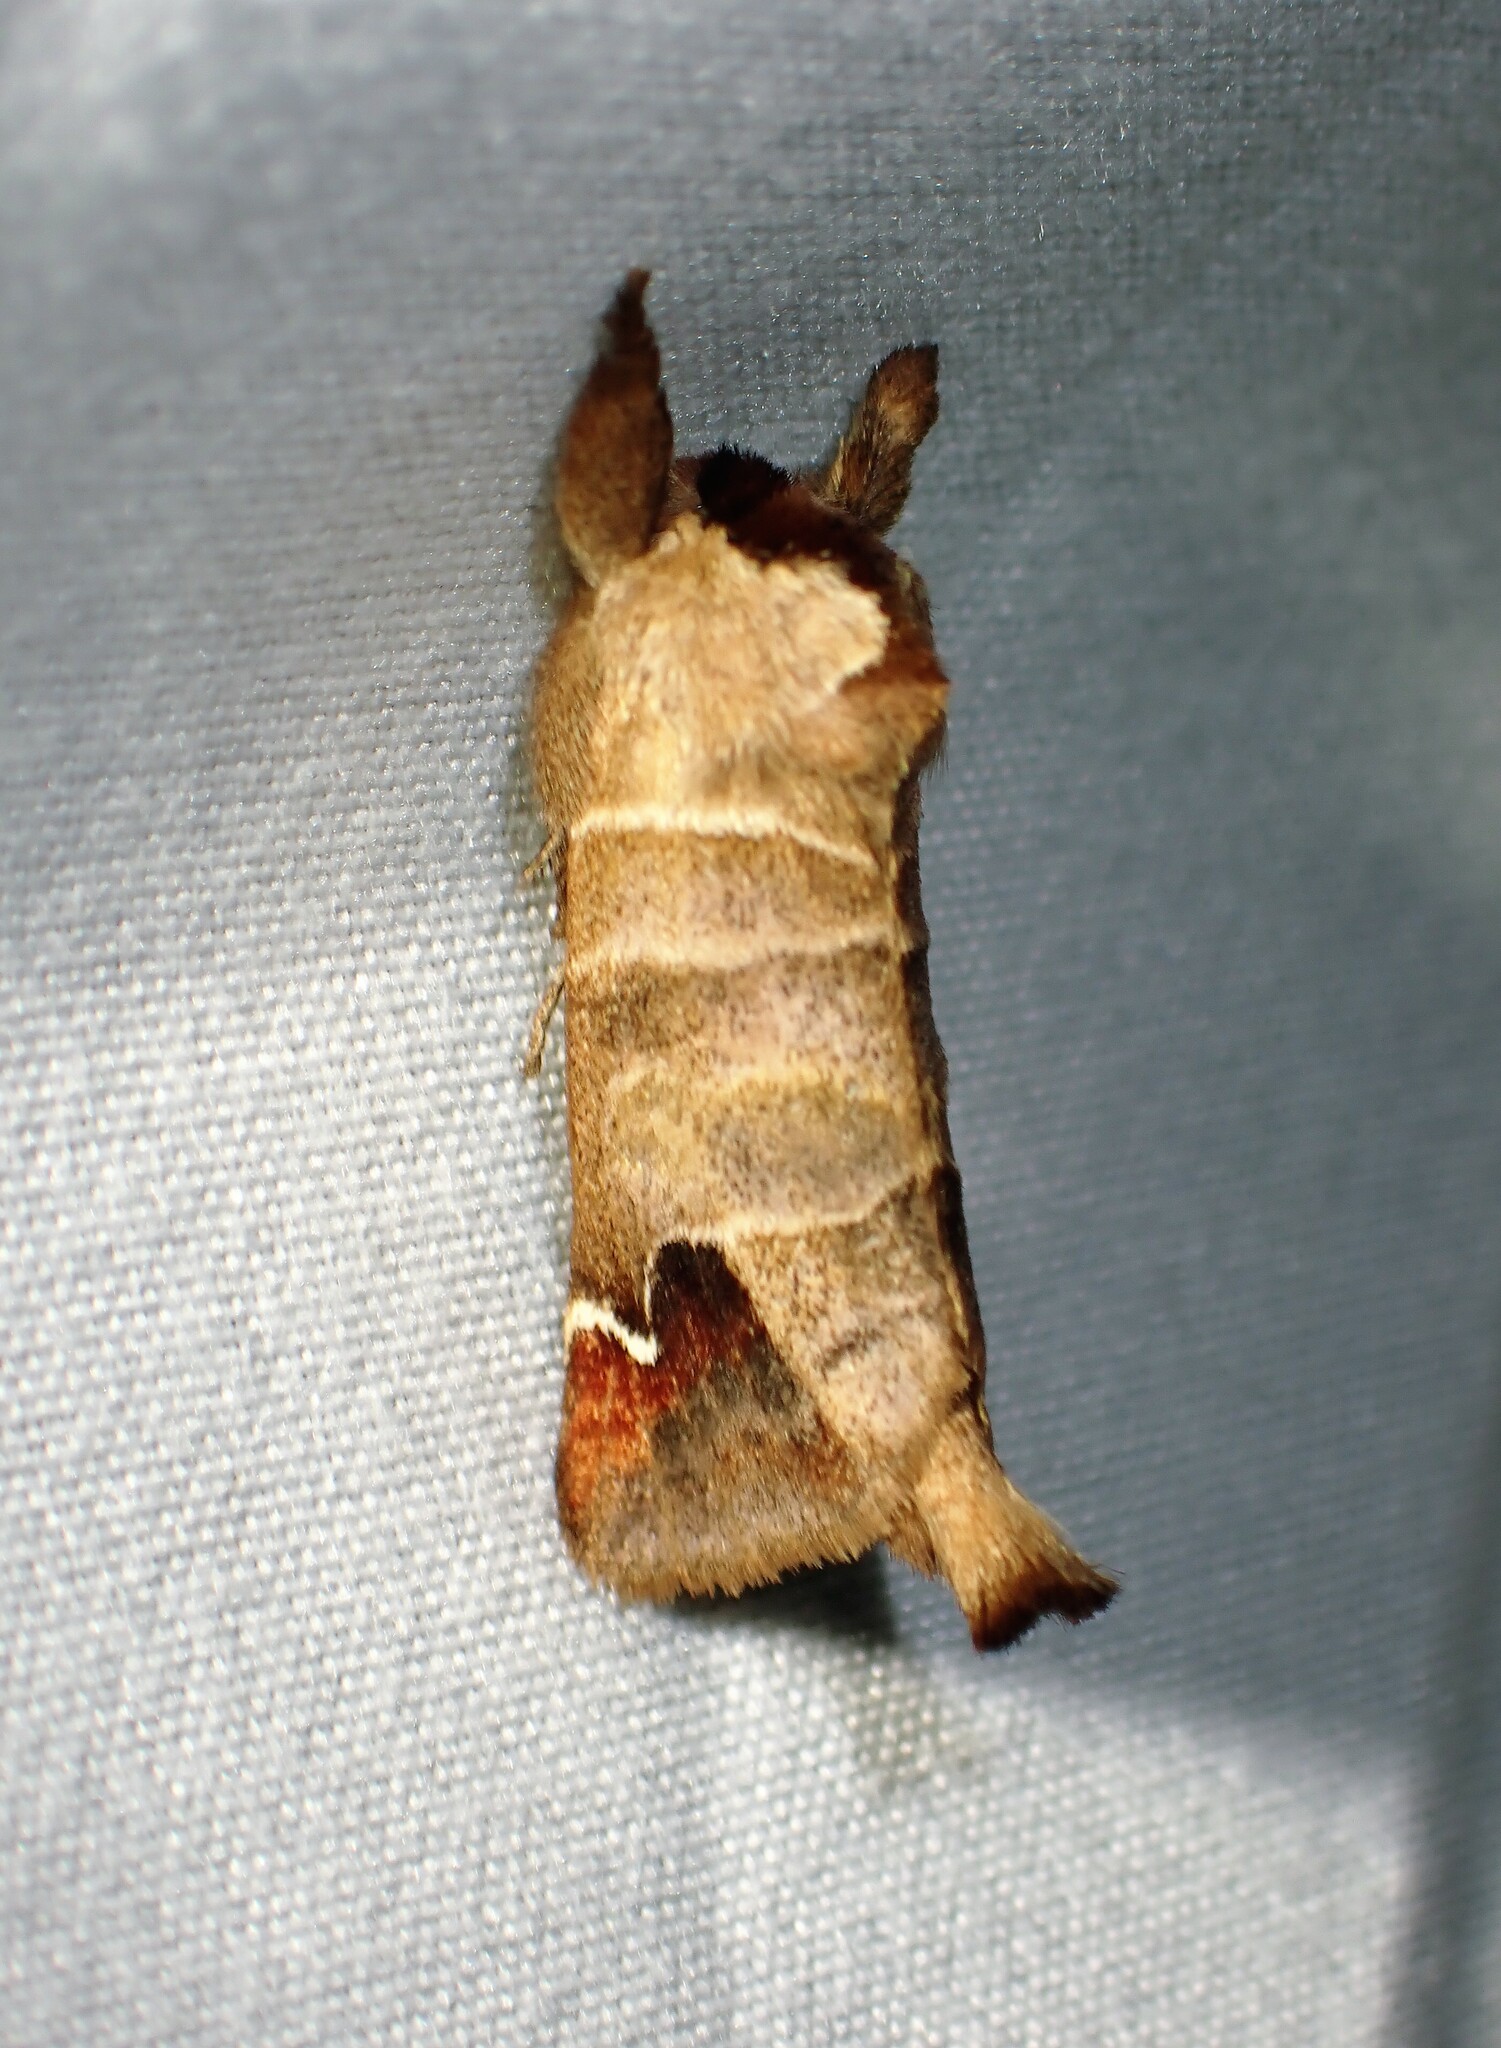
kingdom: Animalia
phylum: Arthropoda
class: Insecta
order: Lepidoptera
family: Notodontidae
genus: Clostera
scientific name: Clostera albosigma
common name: Sigmoid prominent
